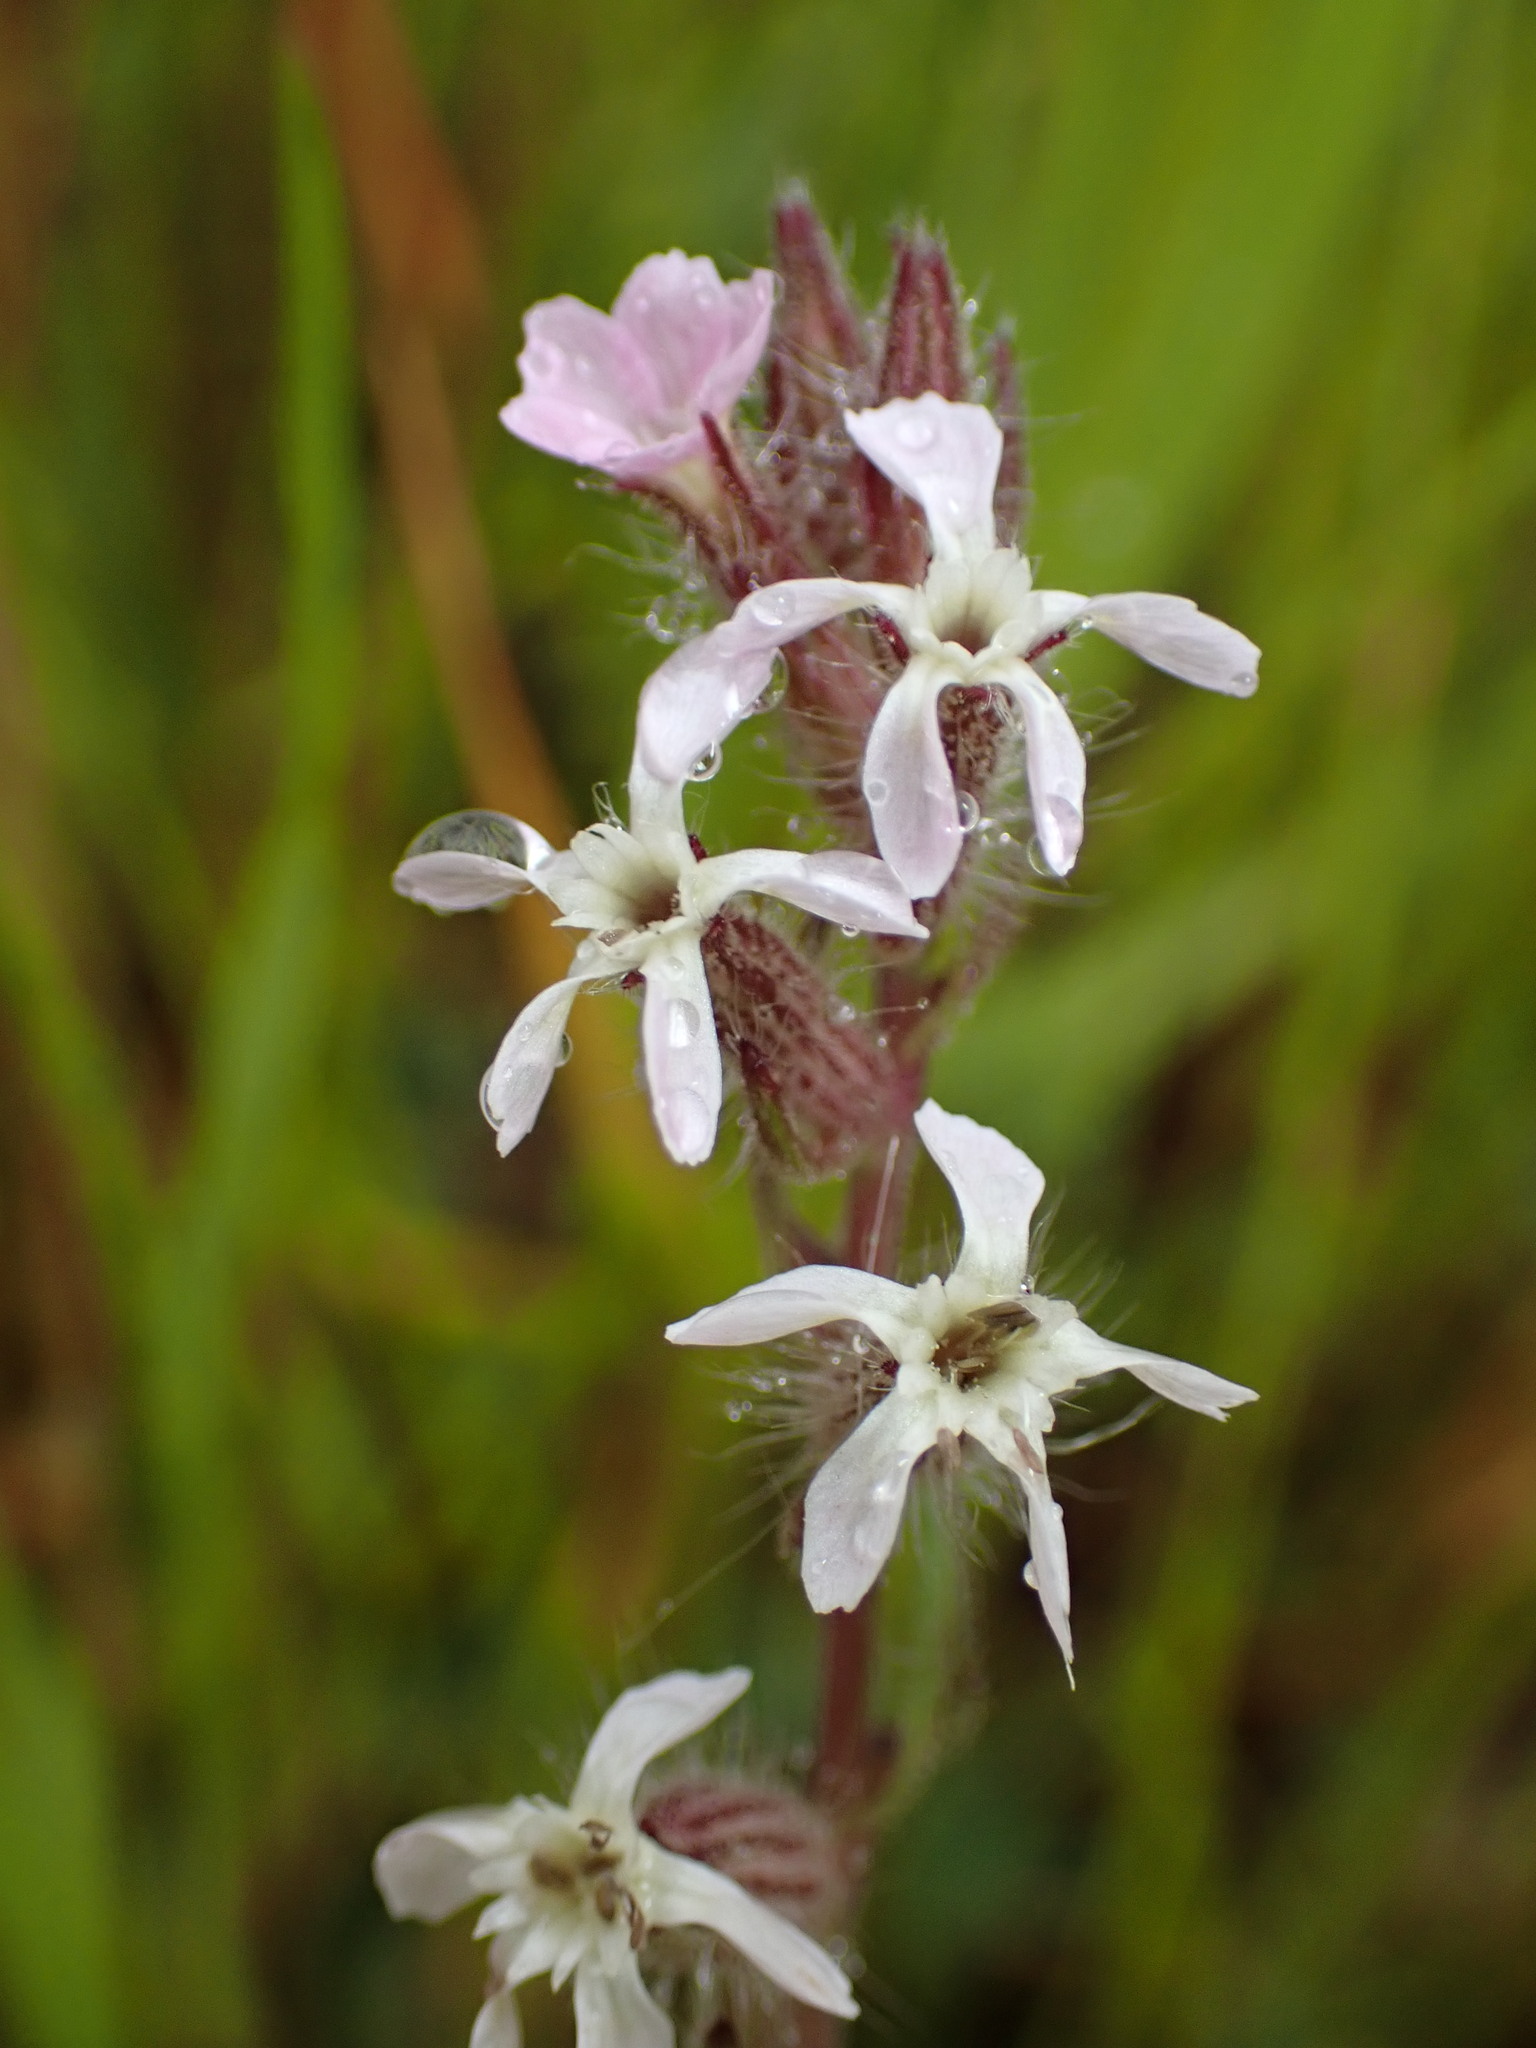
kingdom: Plantae
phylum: Tracheophyta
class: Magnoliopsida
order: Caryophyllales
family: Caryophyllaceae
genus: Silene
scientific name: Silene gallica
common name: Small-flowered catchfly
